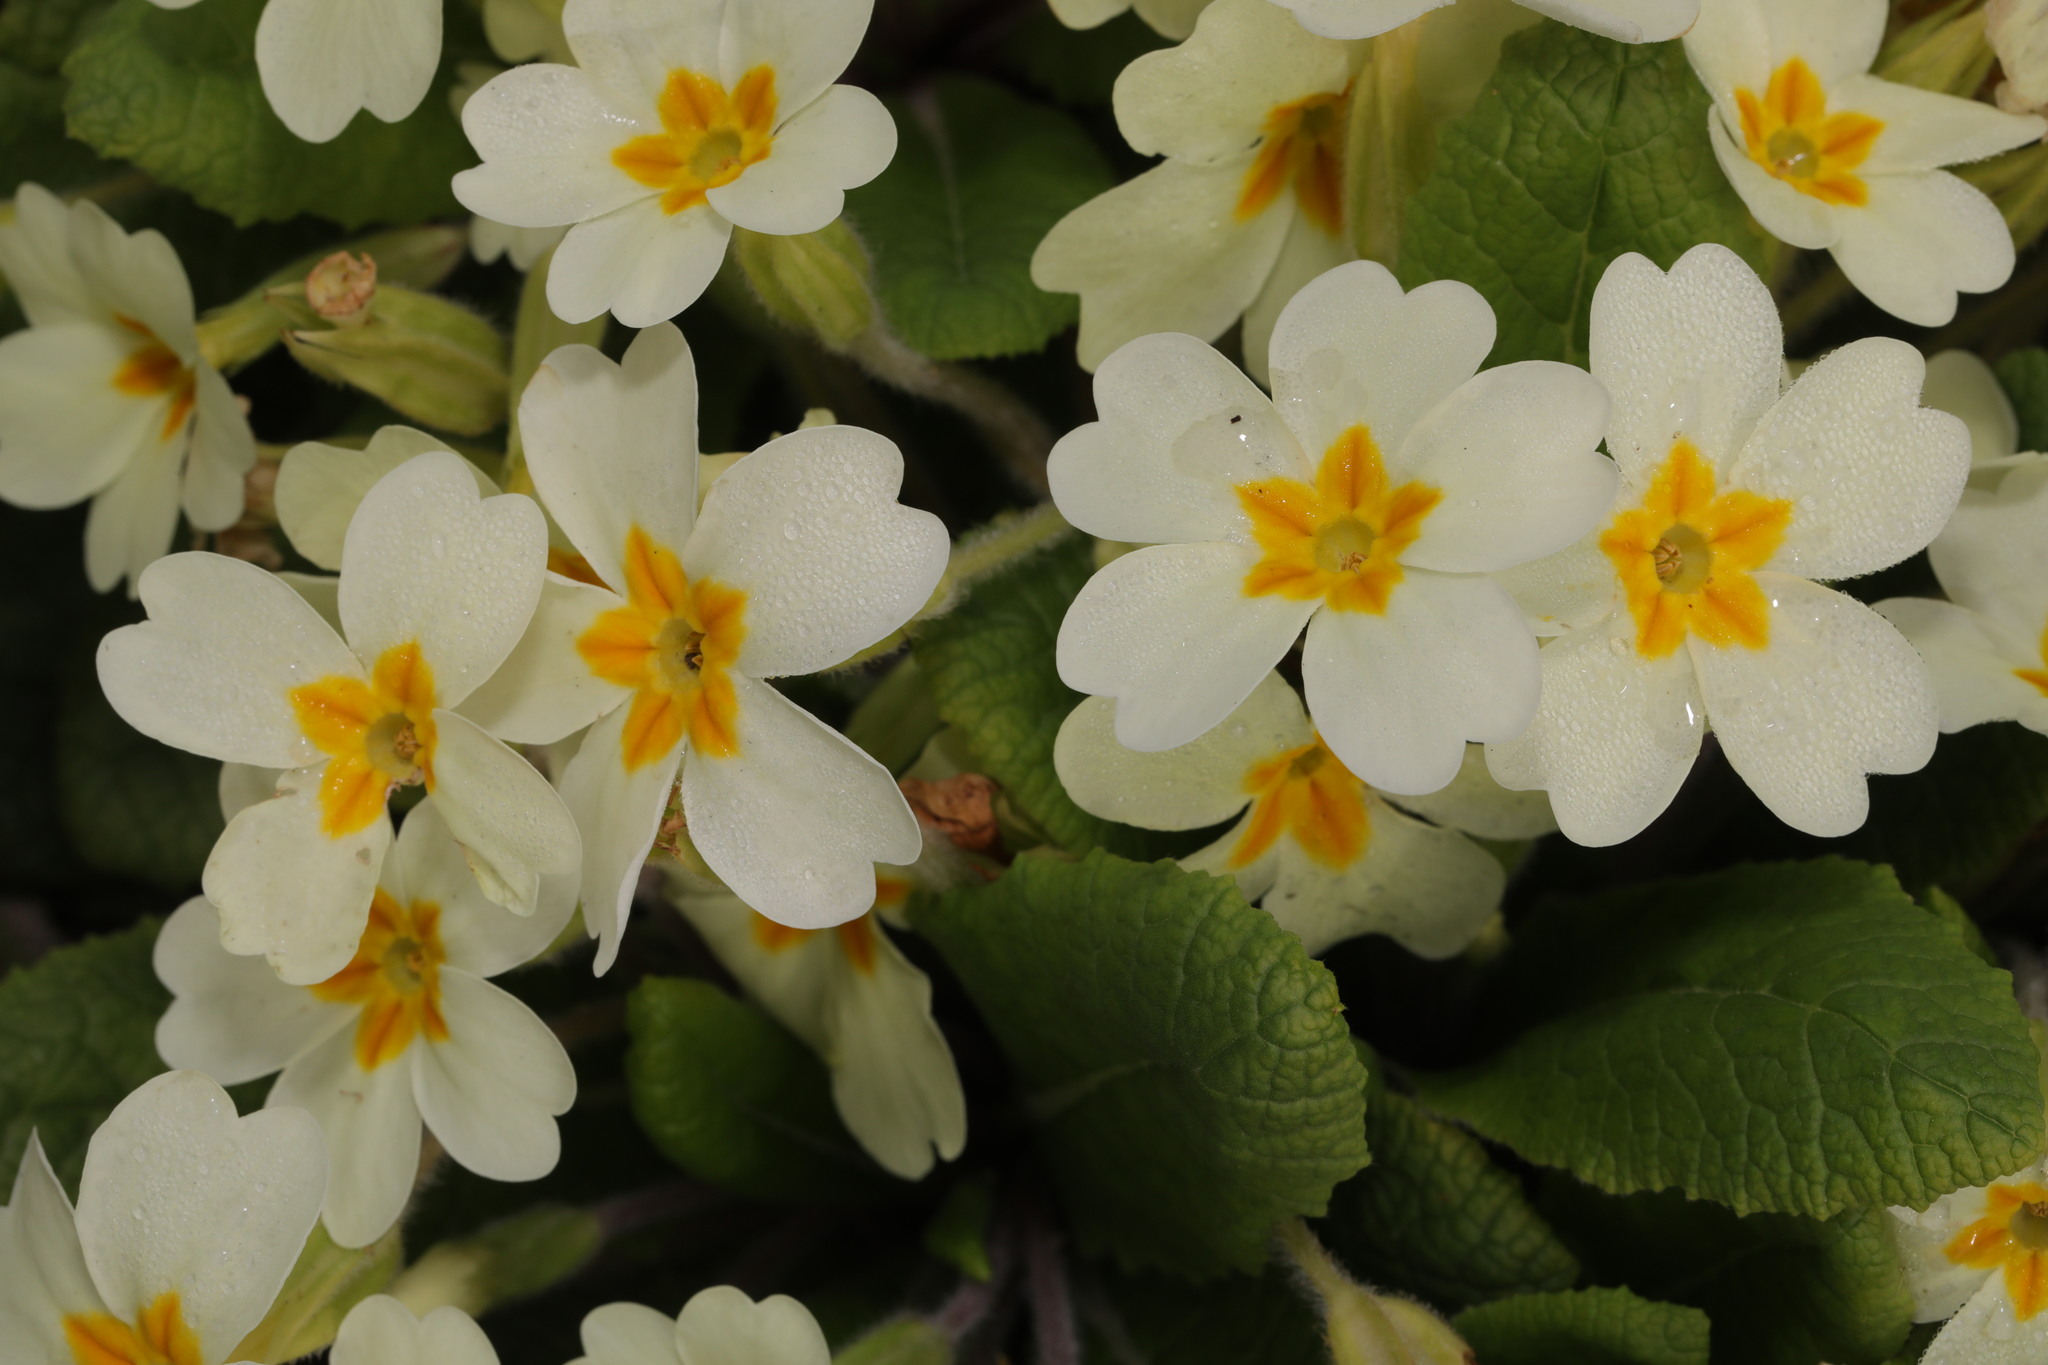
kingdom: Plantae
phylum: Tracheophyta
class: Magnoliopsida
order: Ericales
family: Primulaceae
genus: Primula
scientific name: Primula vulgaris
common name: Primrose
